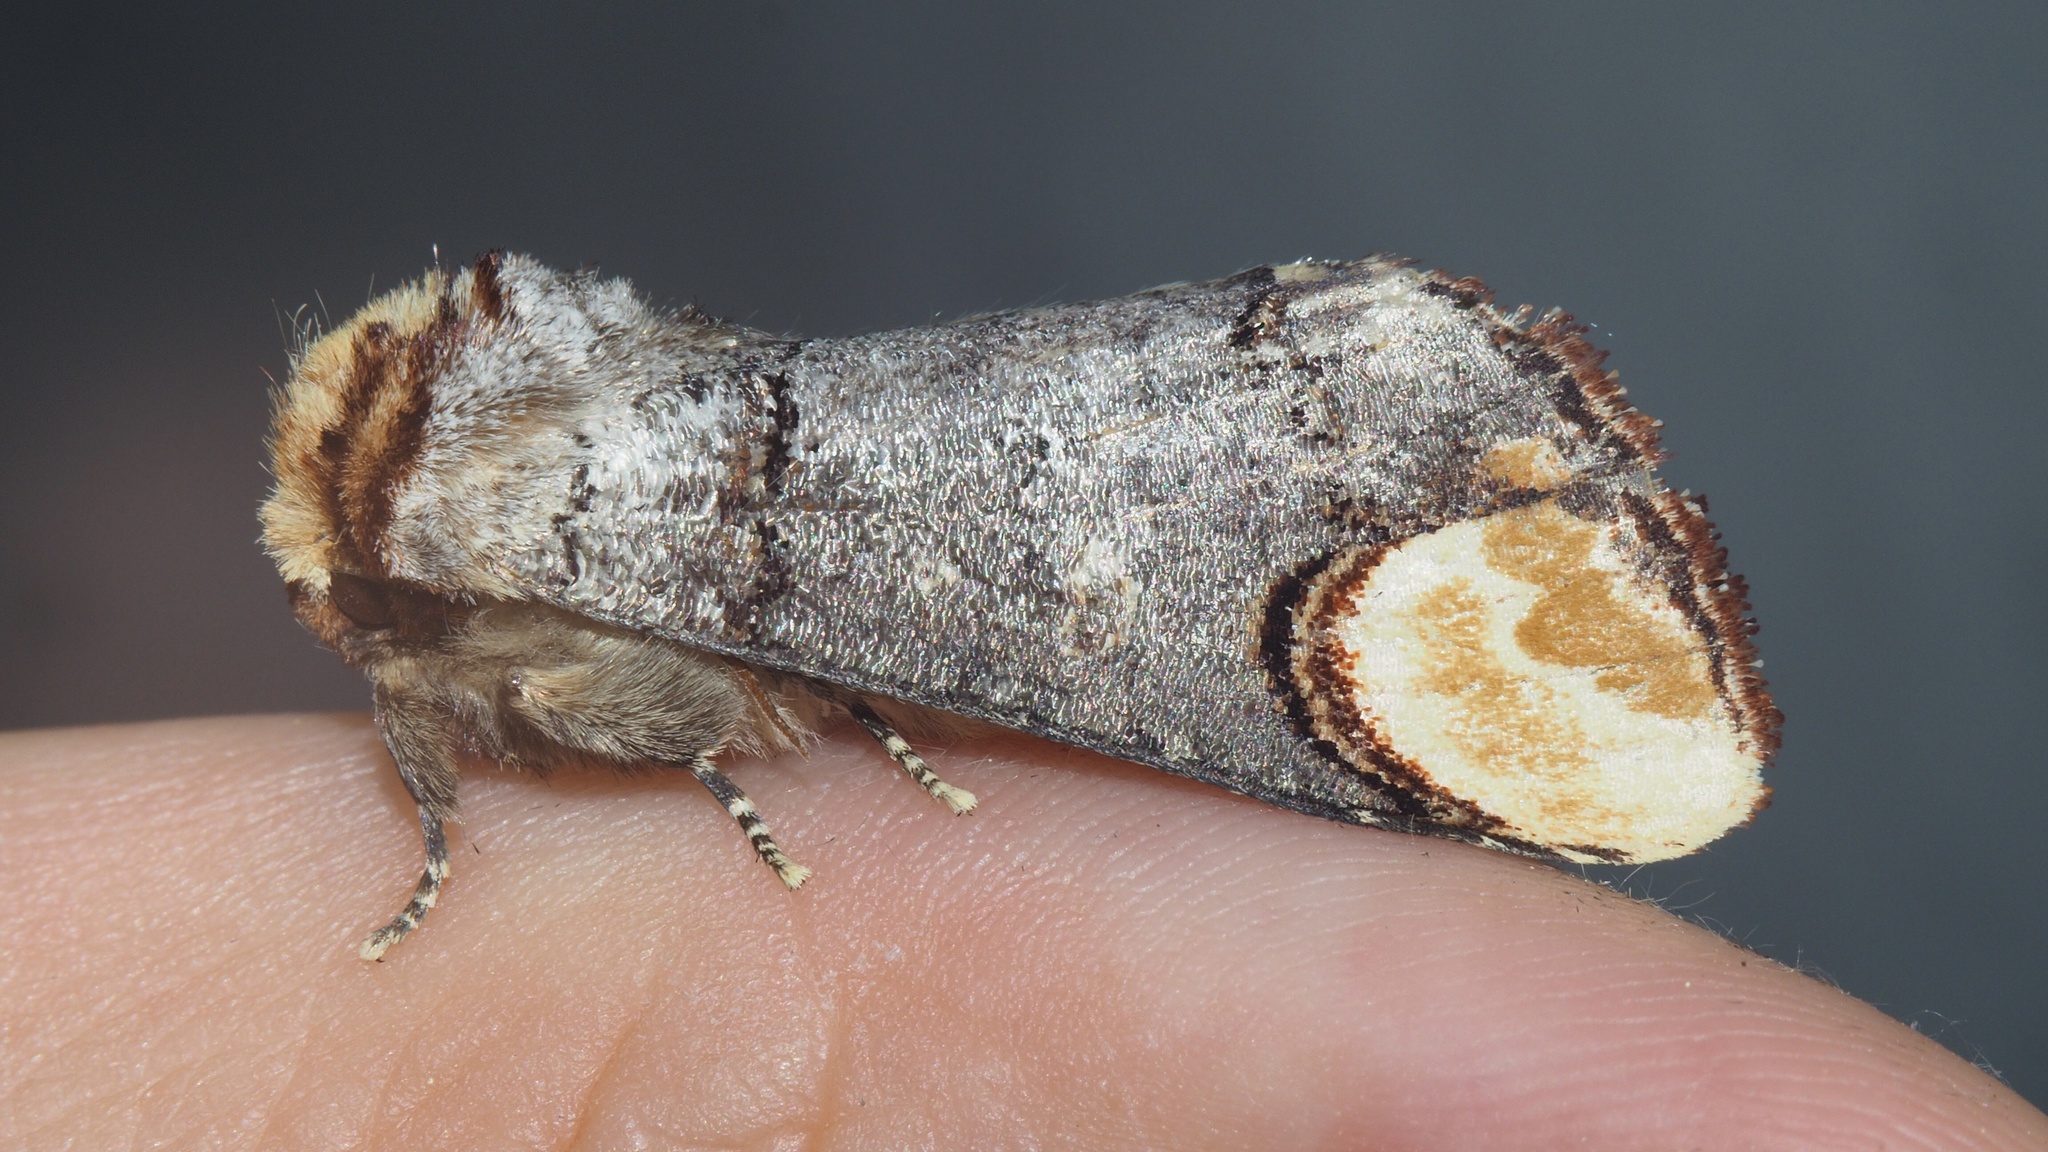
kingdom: Animalia
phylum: Arthropoda
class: Insecta
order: Lepidoptera
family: Notodontidae
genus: Phalera
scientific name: Phalera bucephala
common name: Buff-tip
